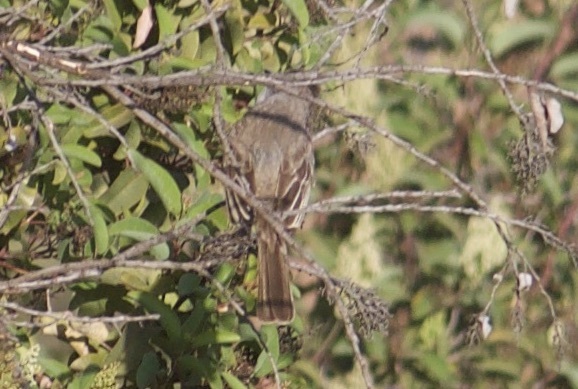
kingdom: Animalia
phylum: Chordata
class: Aves
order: Passeriformes
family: Tyrannidae
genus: Myiarchus
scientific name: Myiarchus cinerascens
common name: Ash-throated flycatcher
